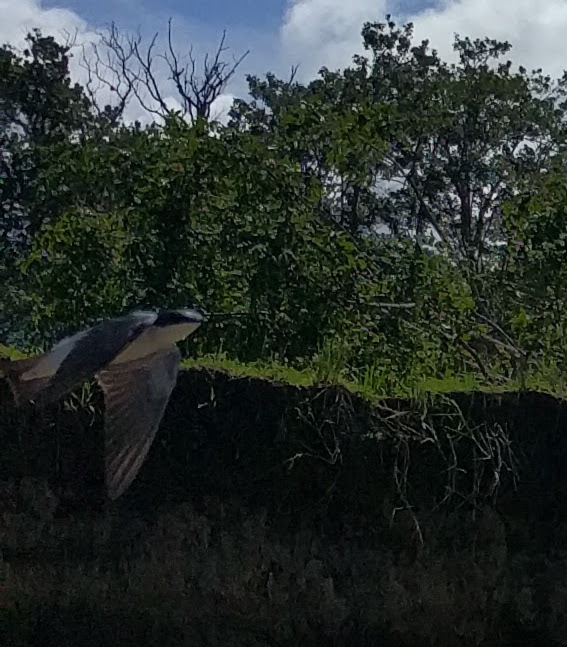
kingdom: Animalia
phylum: Chordata
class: Aves
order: Passeriformes
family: Hirundinidae
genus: Tachycineta
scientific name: Tachycineta albilinea
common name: Mangrove swallow
